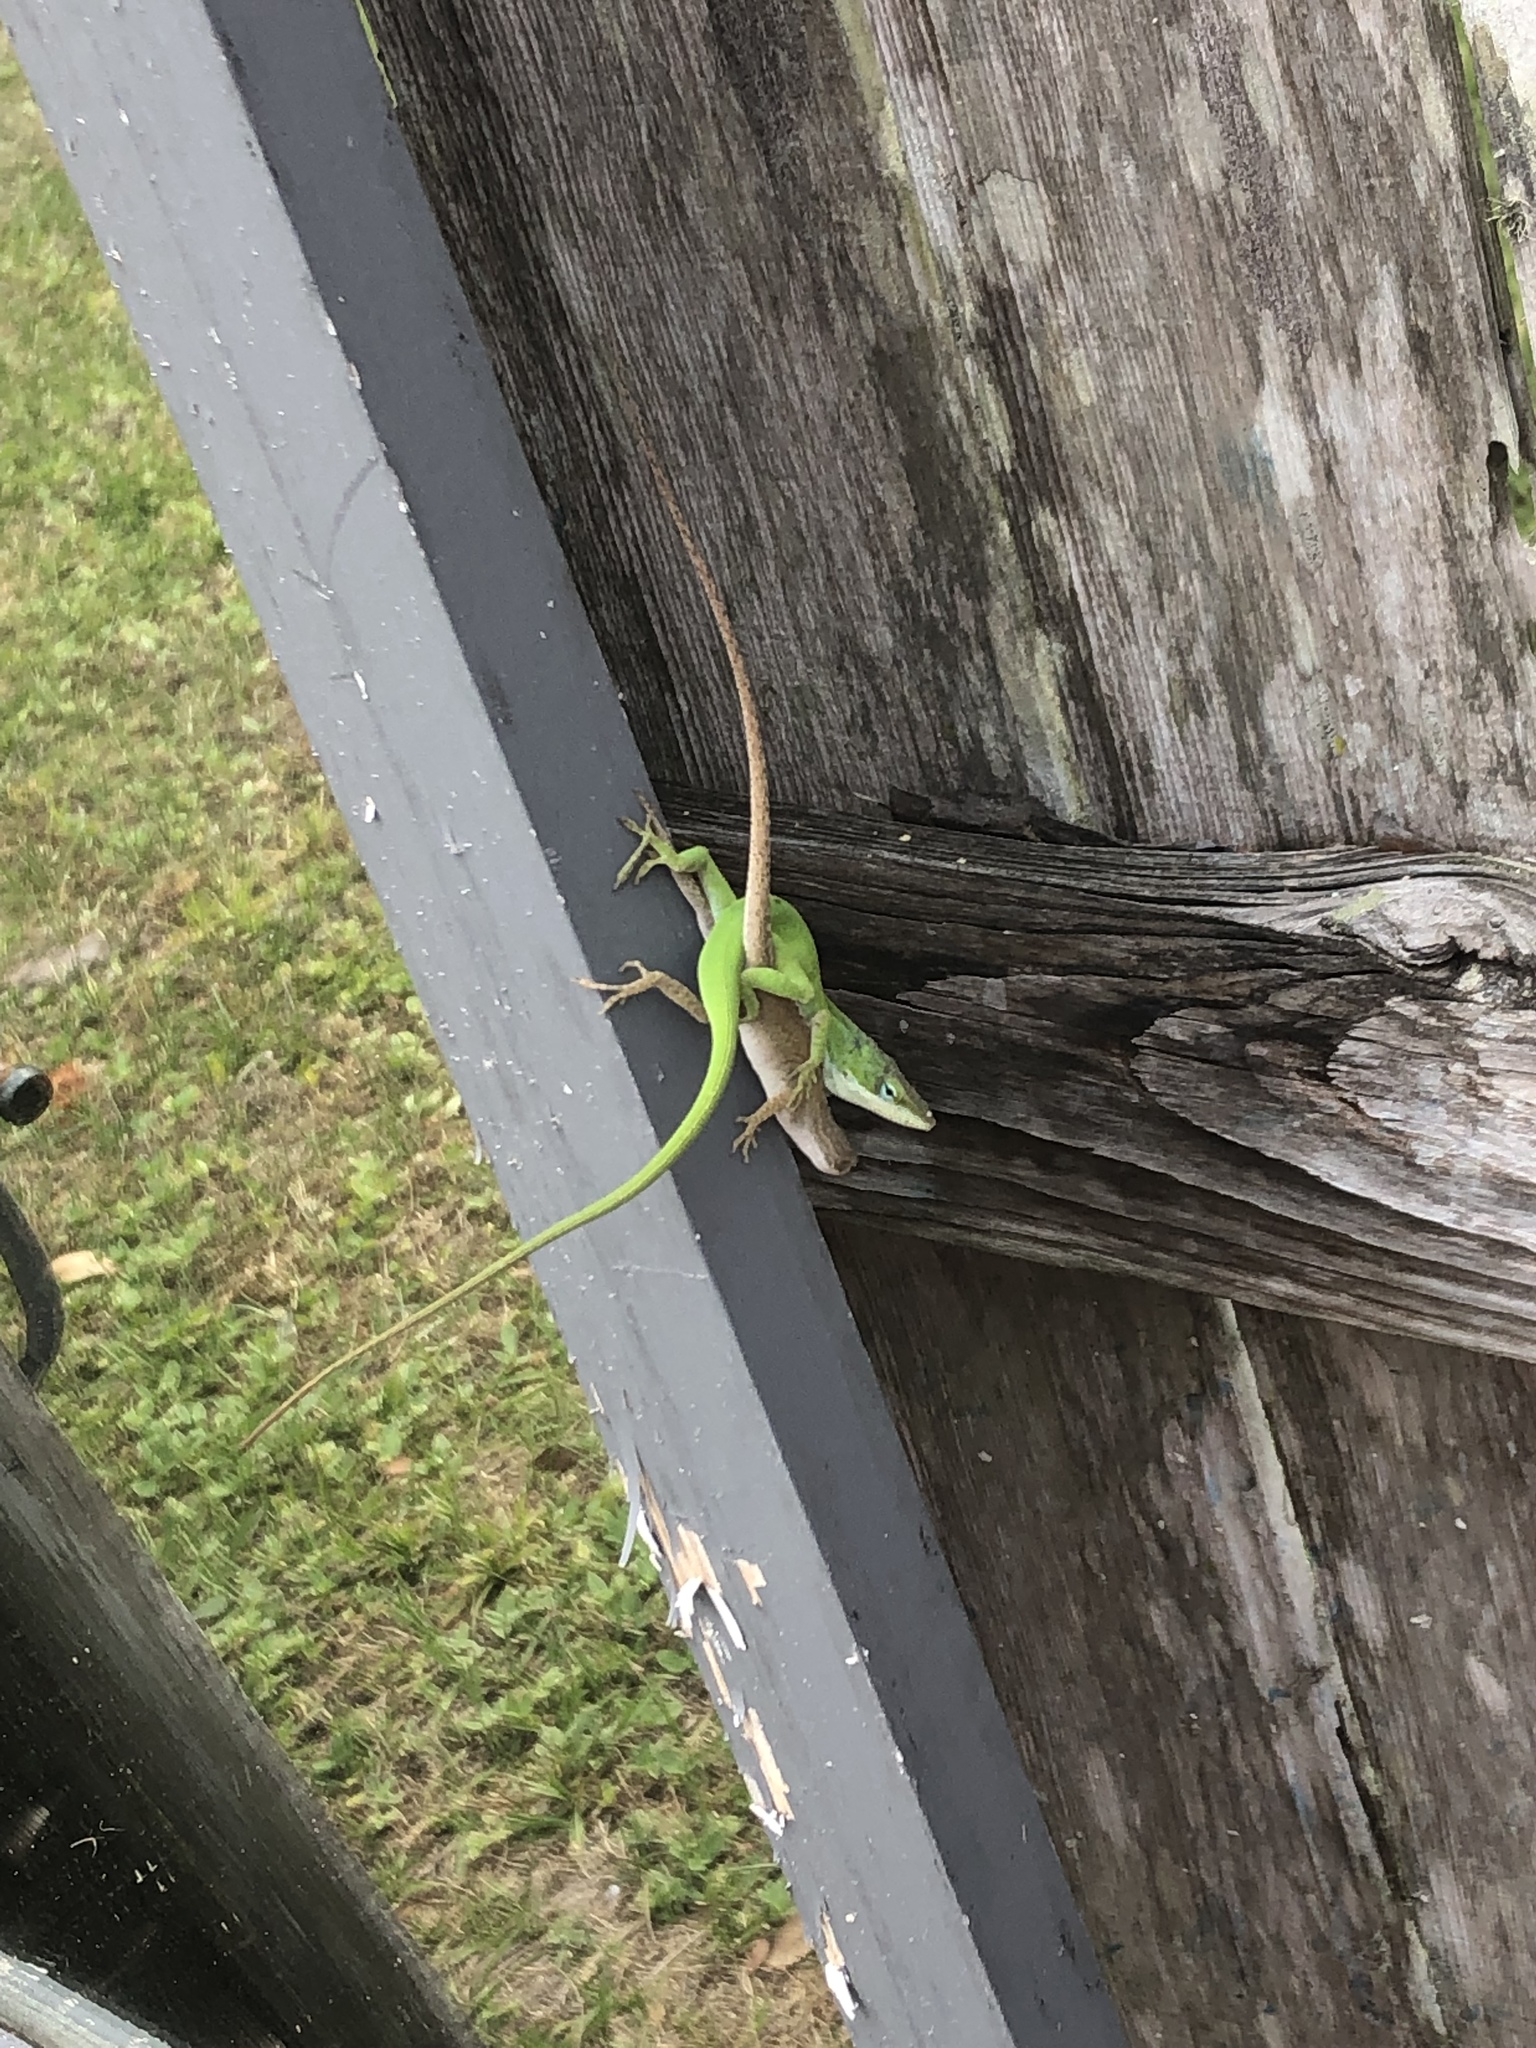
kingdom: Animalia
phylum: Chordata
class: Squamata
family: Dactyloidae
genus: Anolis
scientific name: Anolis carolinensis
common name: Green anole
